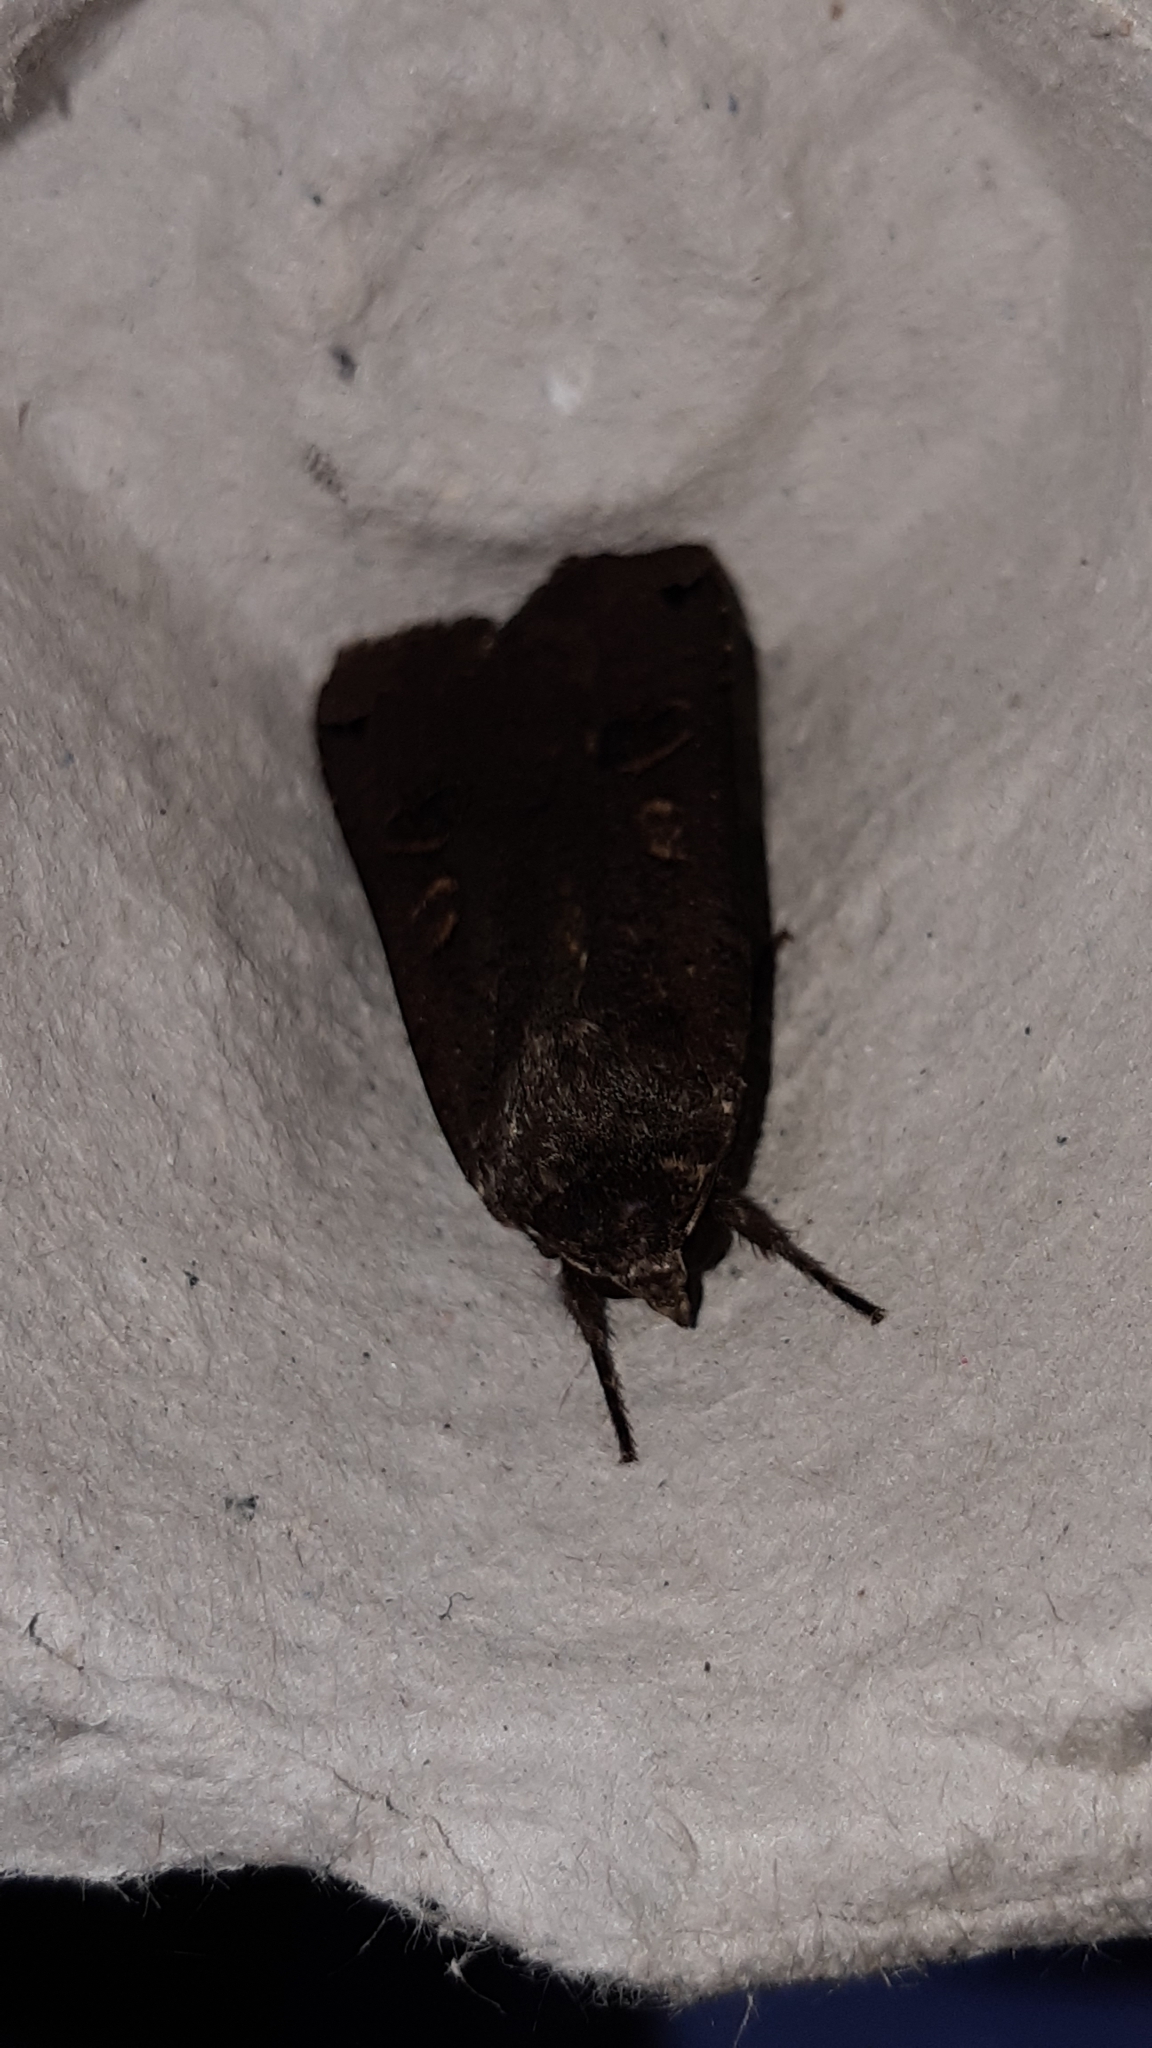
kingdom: Animalia
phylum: Arthropoda
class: Insecta
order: Lepidoptera
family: Noctuidae
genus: Noctua
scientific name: Noctua pronuba
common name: Large yellow underwing
